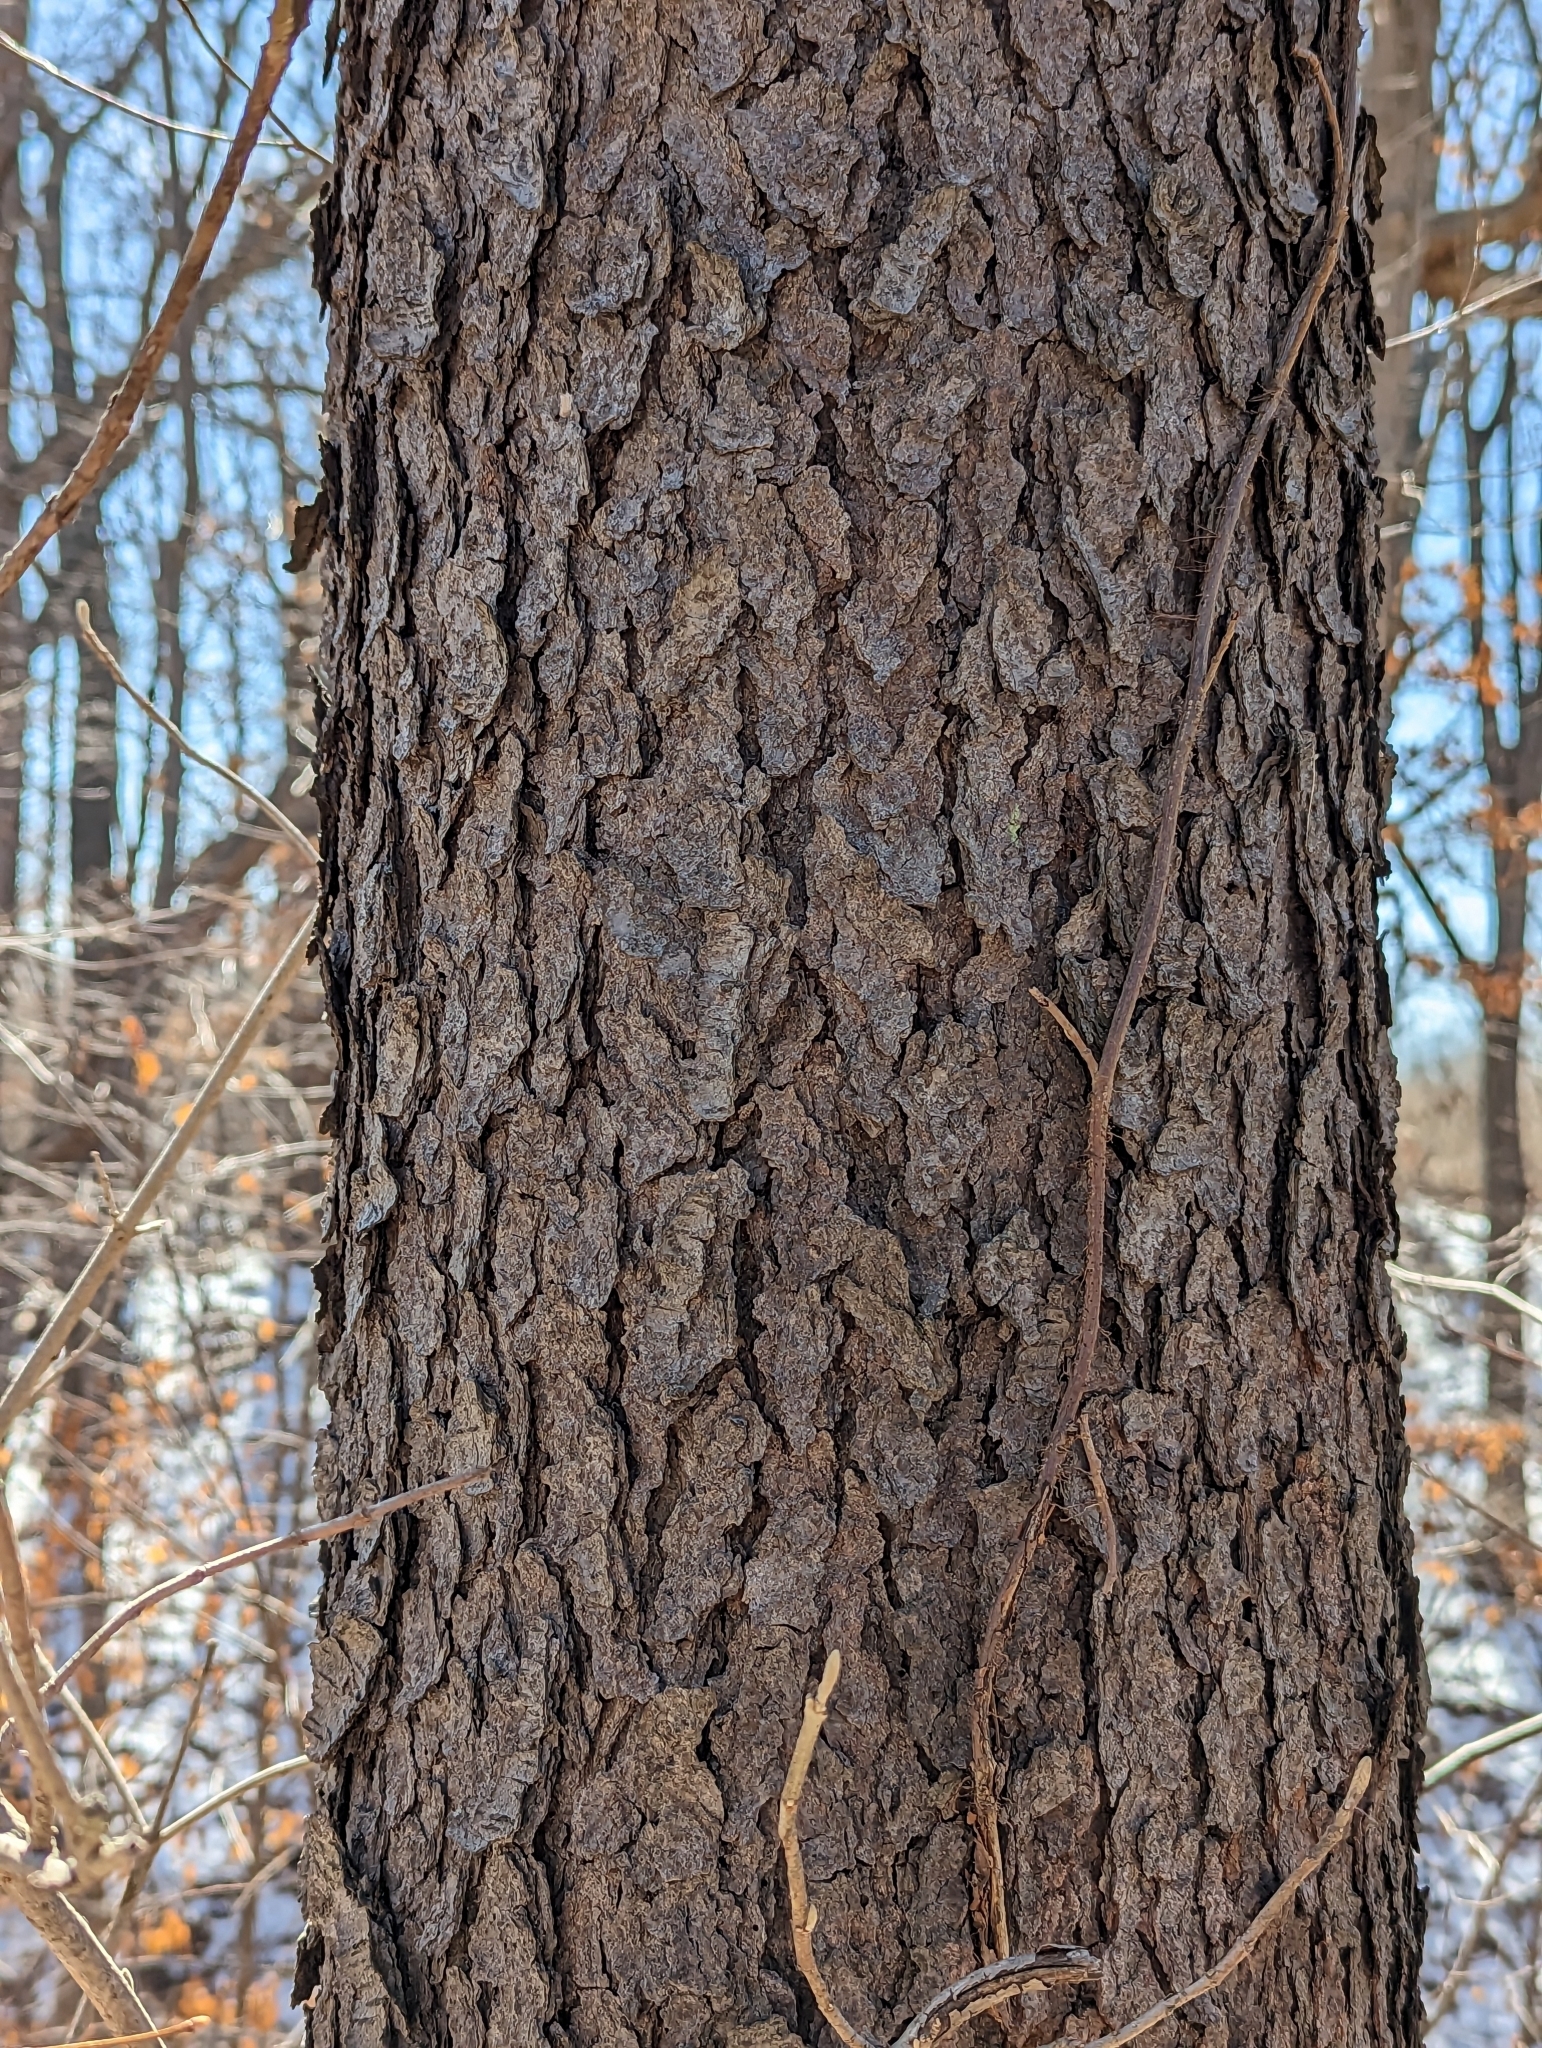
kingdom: Plantae
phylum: Tracheophyta
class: Magnoliopsida
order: Rosales
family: Rosaceae
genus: Prunus
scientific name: Prunus serotina
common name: Black cherry
